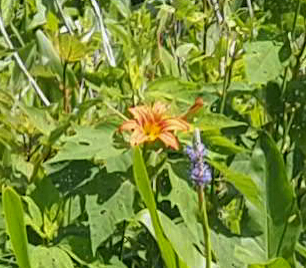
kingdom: Plantae
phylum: Tracheophyta
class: Liliopsida
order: Asparagales
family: Asphodelaceae
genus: Hemerocallis
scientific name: Hemerocallis fulva
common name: Orange day-lily
